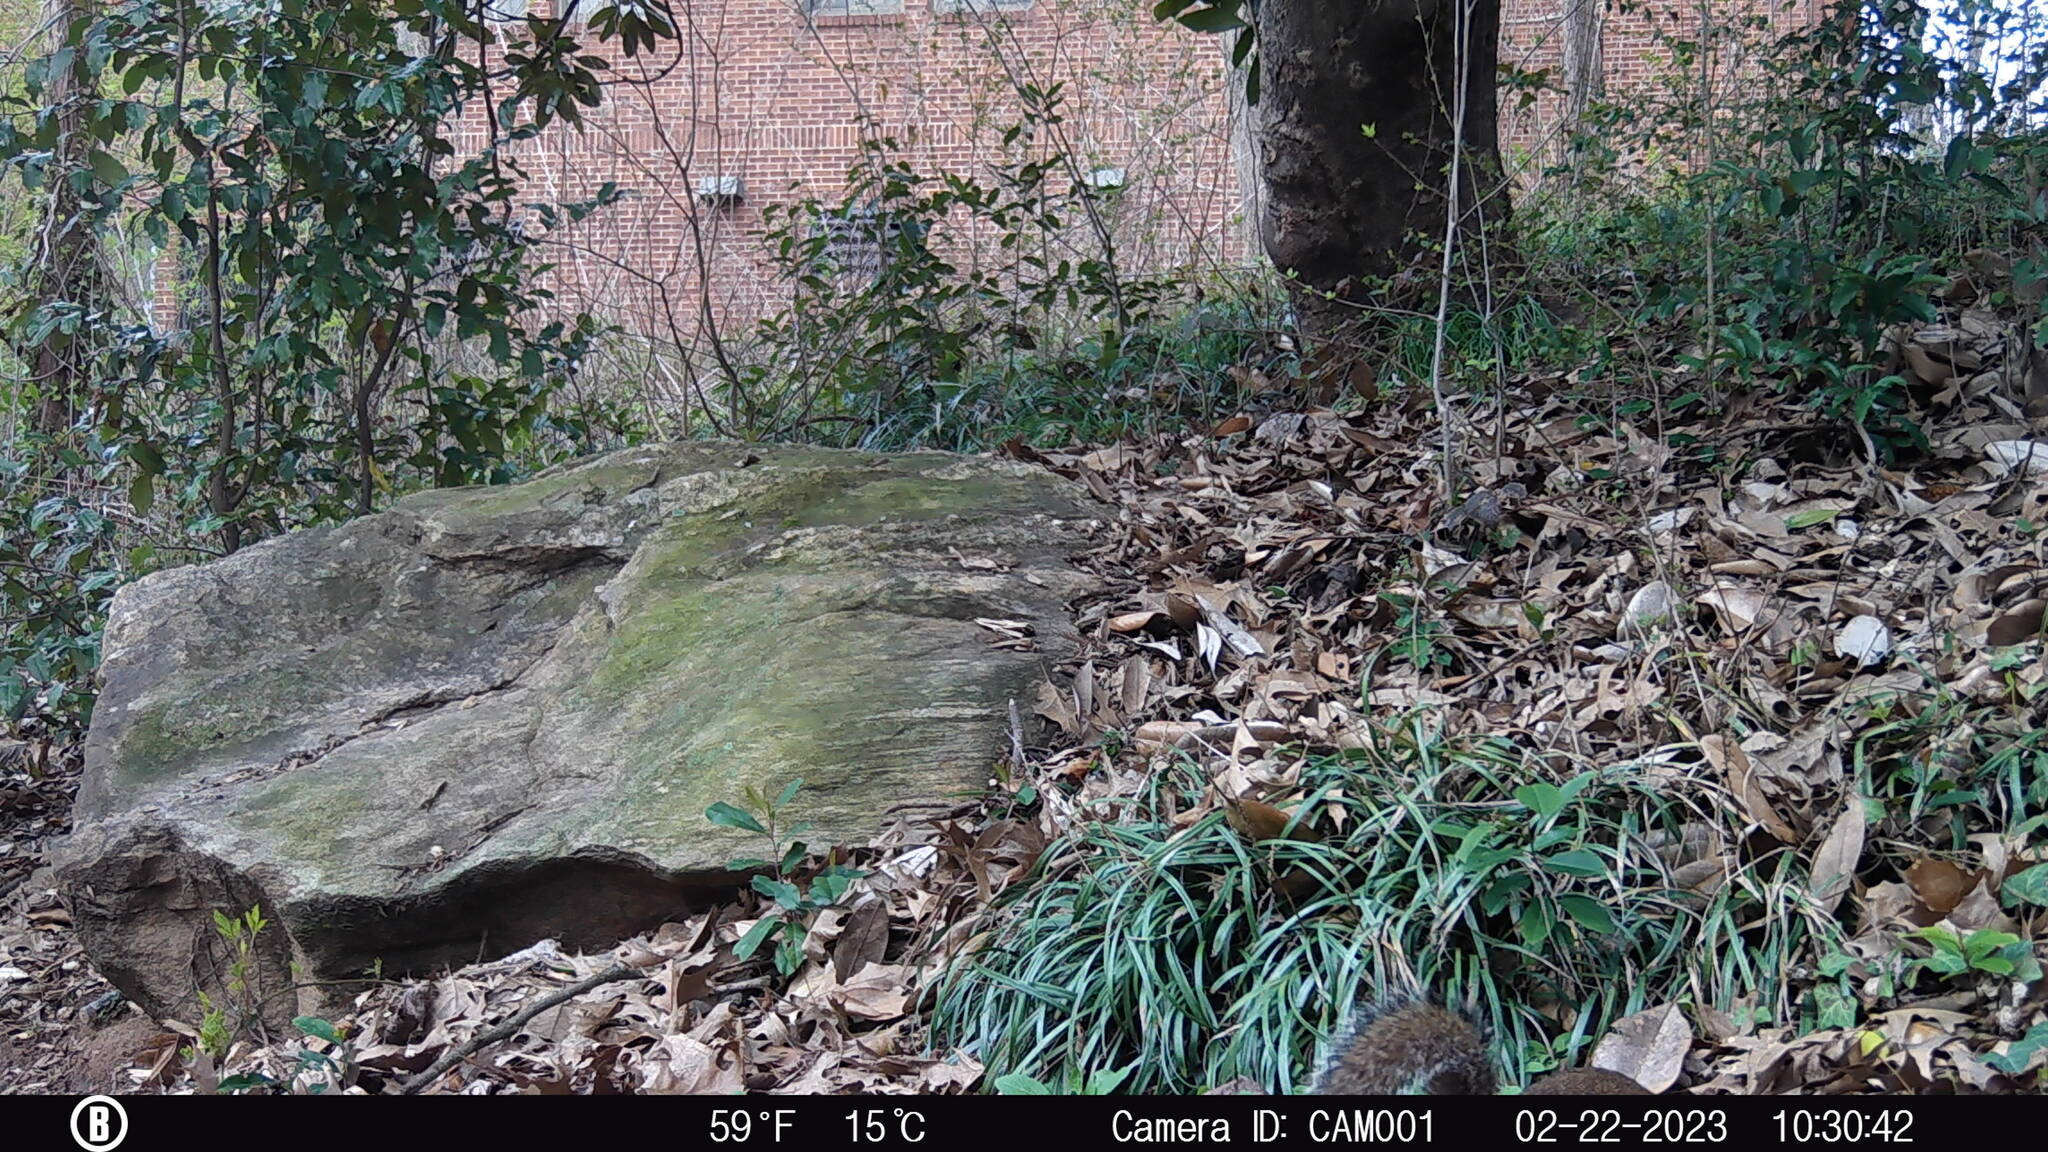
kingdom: Animalia
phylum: Chordata
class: Mammalia
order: Rodentia
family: Sciuridae
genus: Sciurus
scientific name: Sciurus carolinensis
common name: Eastern gray squirrel
